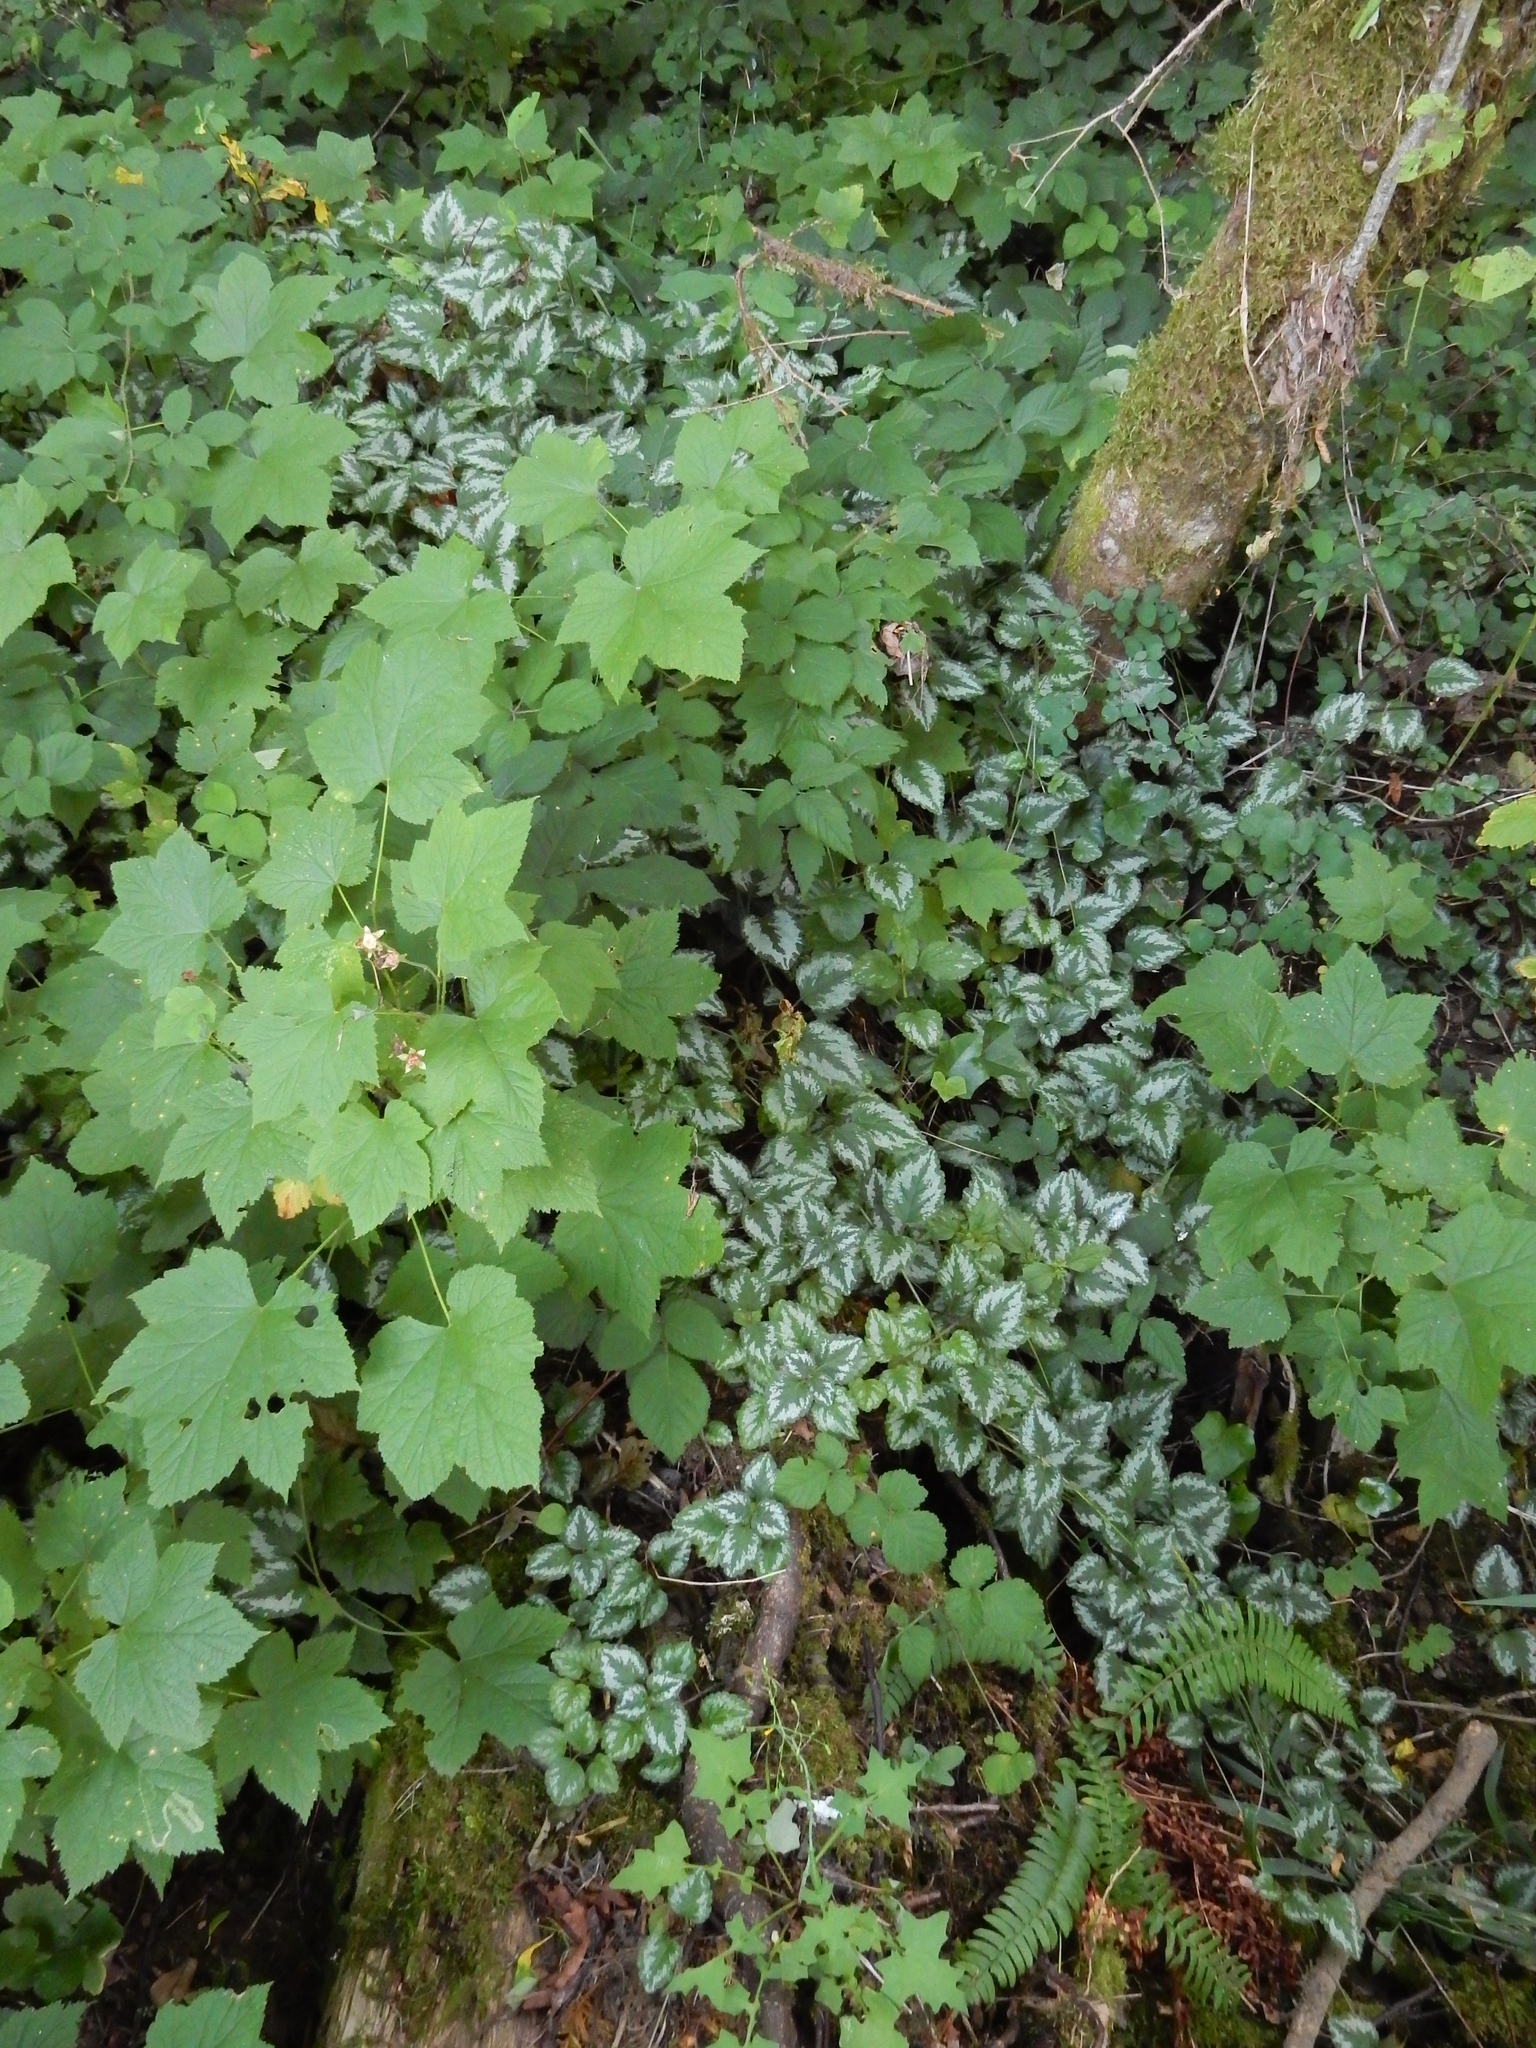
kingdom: Plantae
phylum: Tracheophyta
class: Magnoliopsida
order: Lamiales
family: Lamiaceae
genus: Lamium
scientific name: Lamium galeobdolon
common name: Yellow archangel
